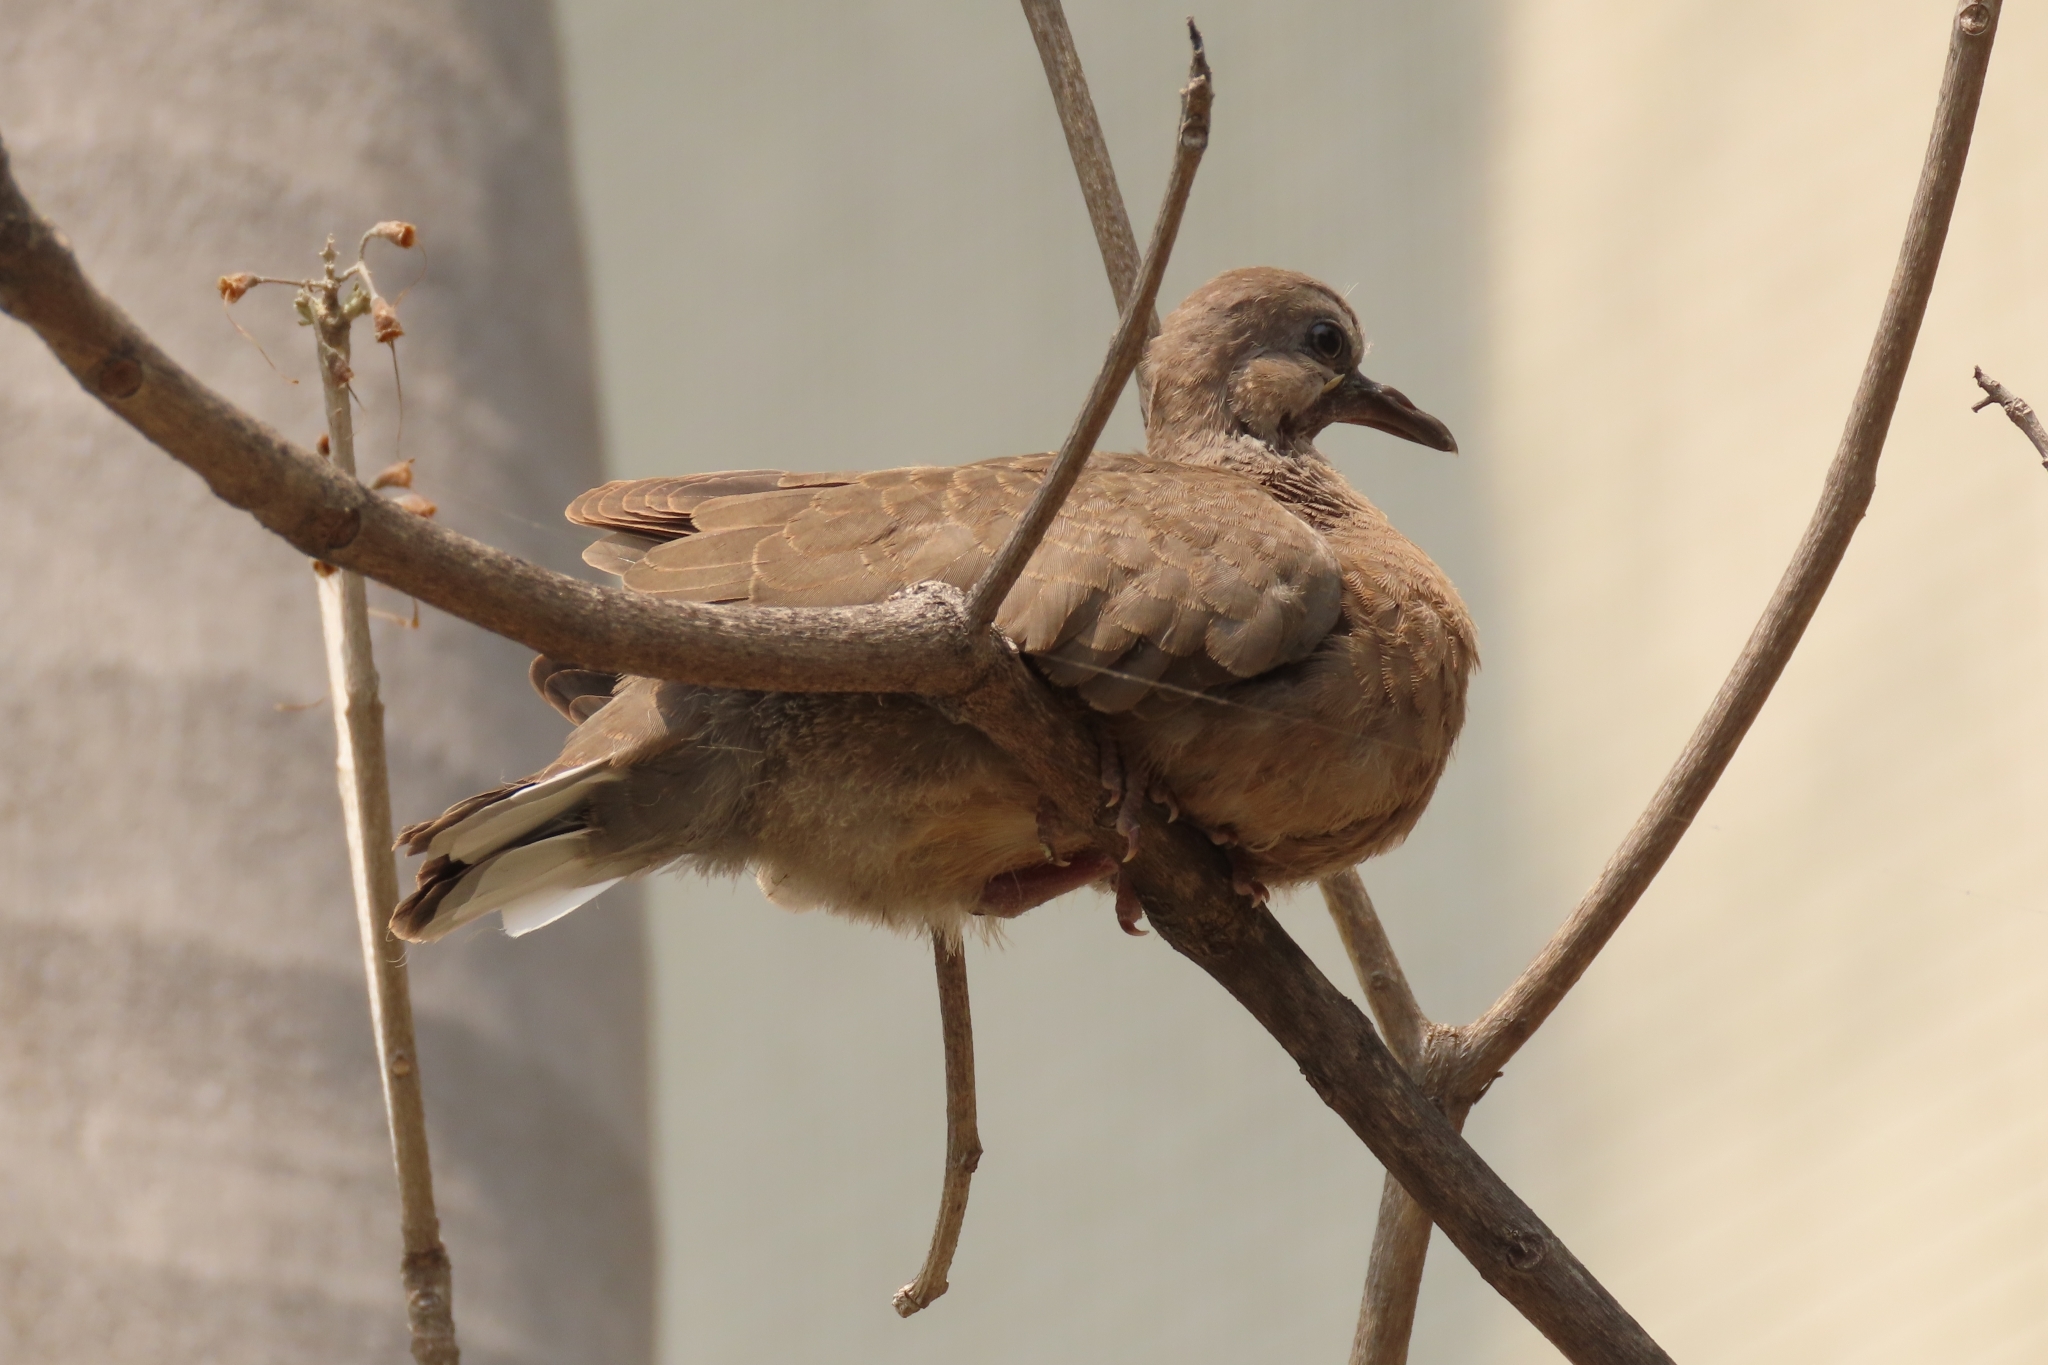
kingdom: Animalia
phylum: Chordata
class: Aves
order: Columbiformes
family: Columbidae
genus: Spilopelia
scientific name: Spilopelia chinensis
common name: Spotted dove
